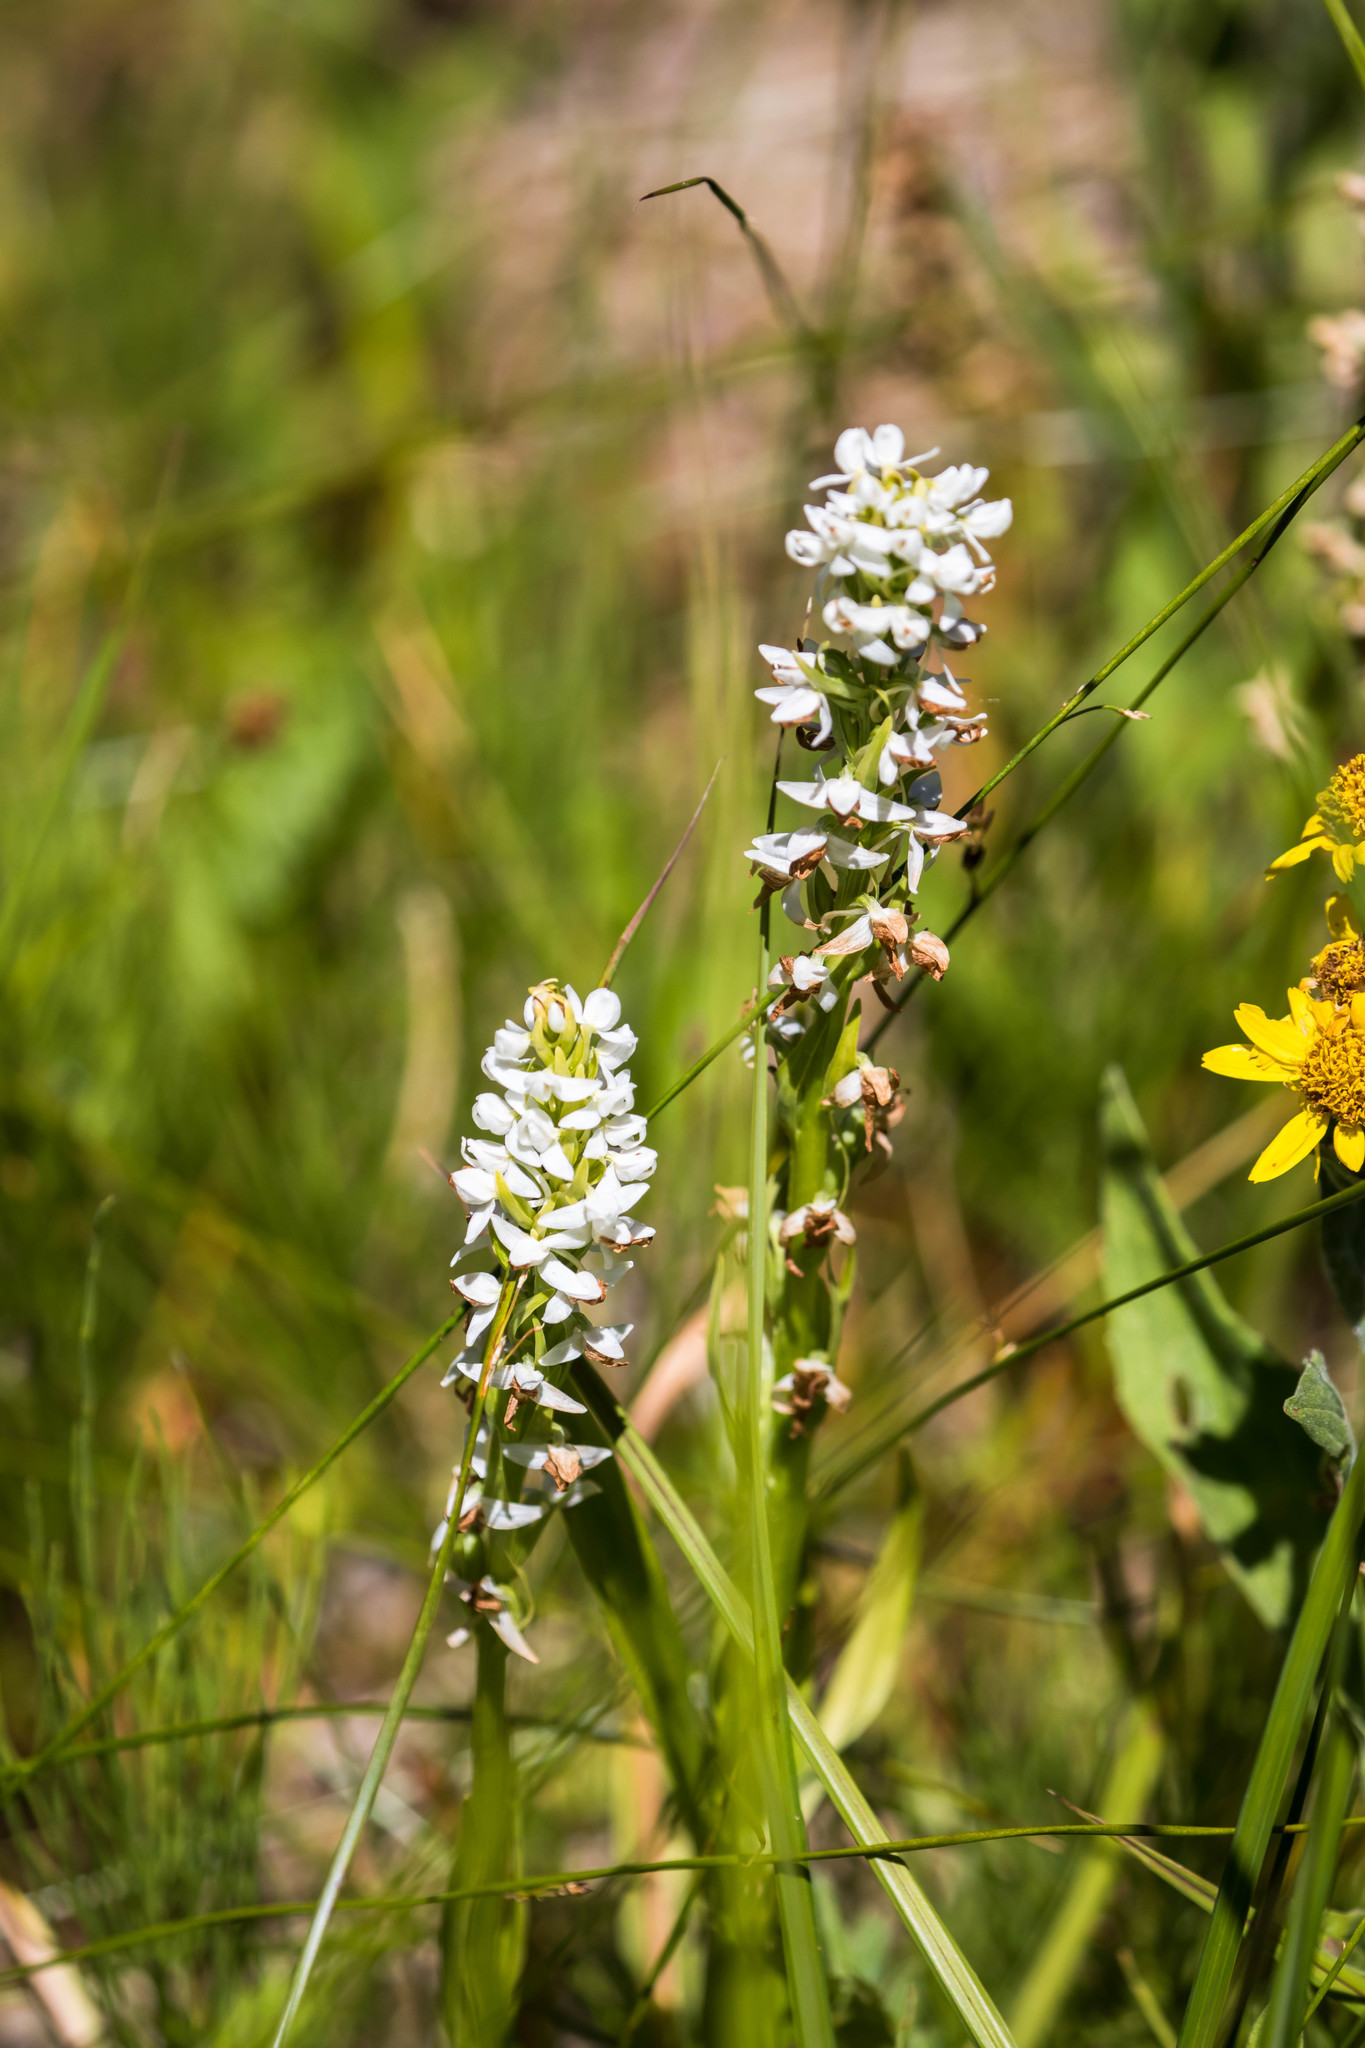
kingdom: Plantae
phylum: Tracheophyta
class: Liliopsida
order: Asparagales
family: Orchidaceae
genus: Platanthera
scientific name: Platanthera dilatata
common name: Bog candles
